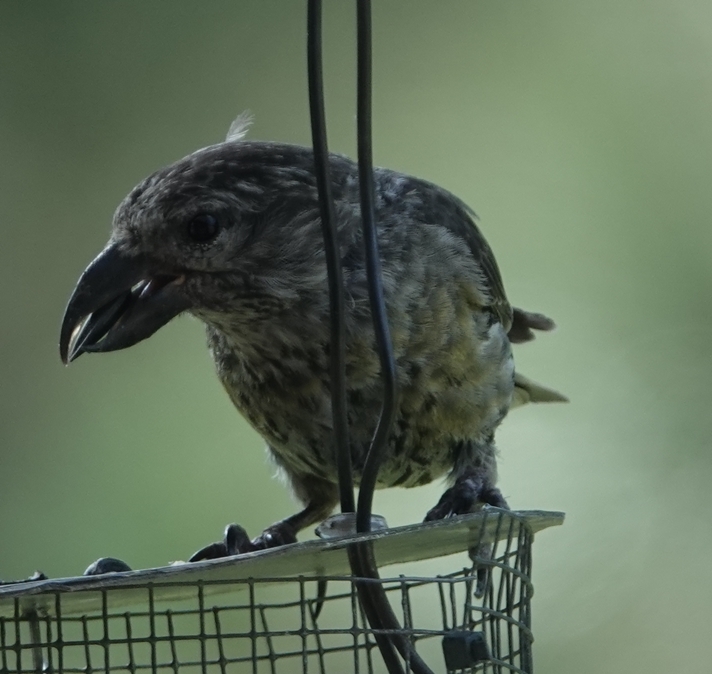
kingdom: Animalia
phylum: Chordata
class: Aves
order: Passeriformes
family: Fringillidae
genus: Loxia
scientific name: Loxia curvirostra
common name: Red crossbill
